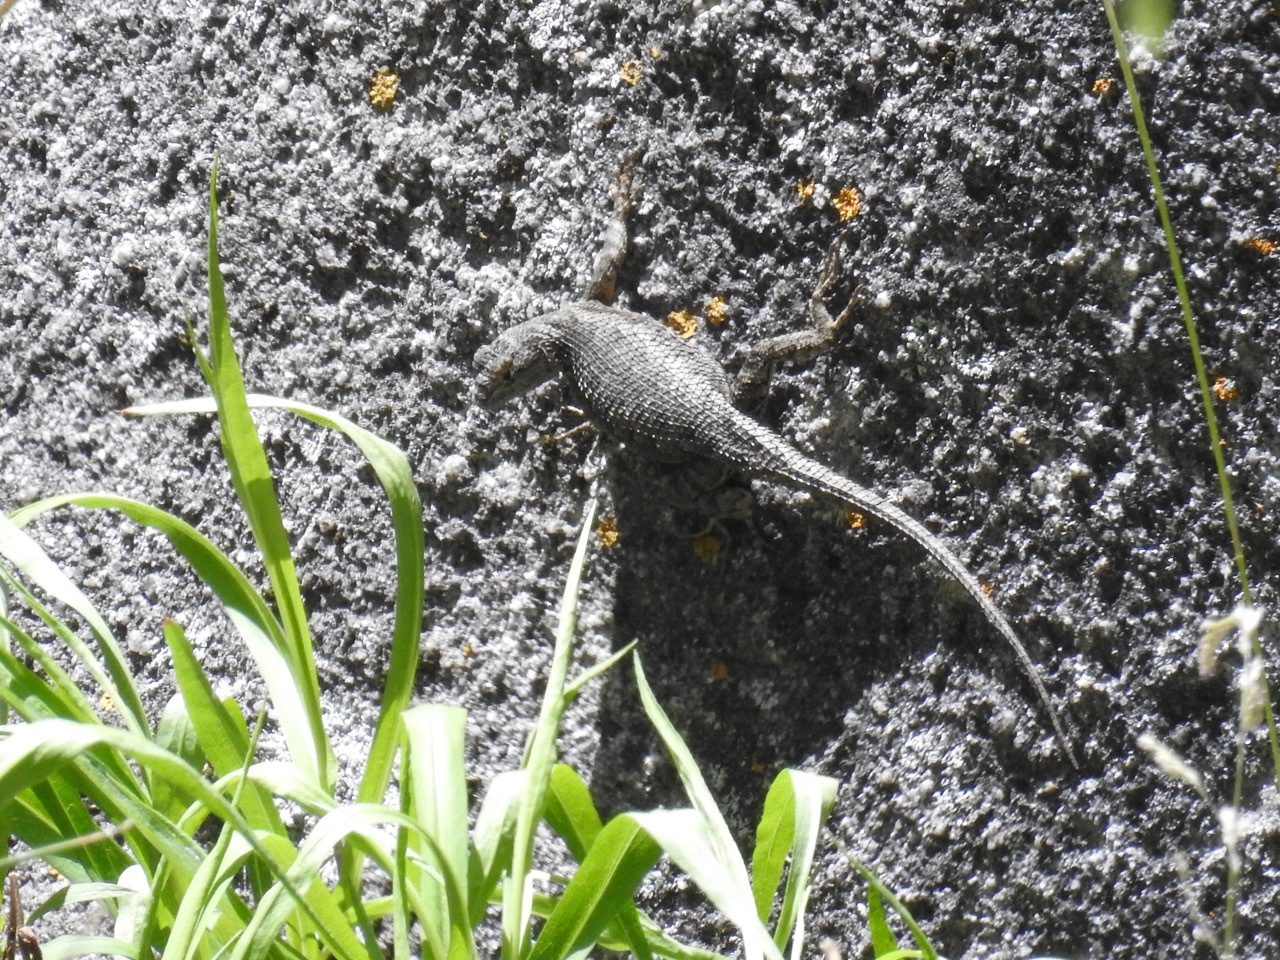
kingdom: Animalia
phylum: Chordata
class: Squamata
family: Phrynosomatidae
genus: Sceloporus
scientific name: Sceloporus occidentalis
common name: Western fence lizard
